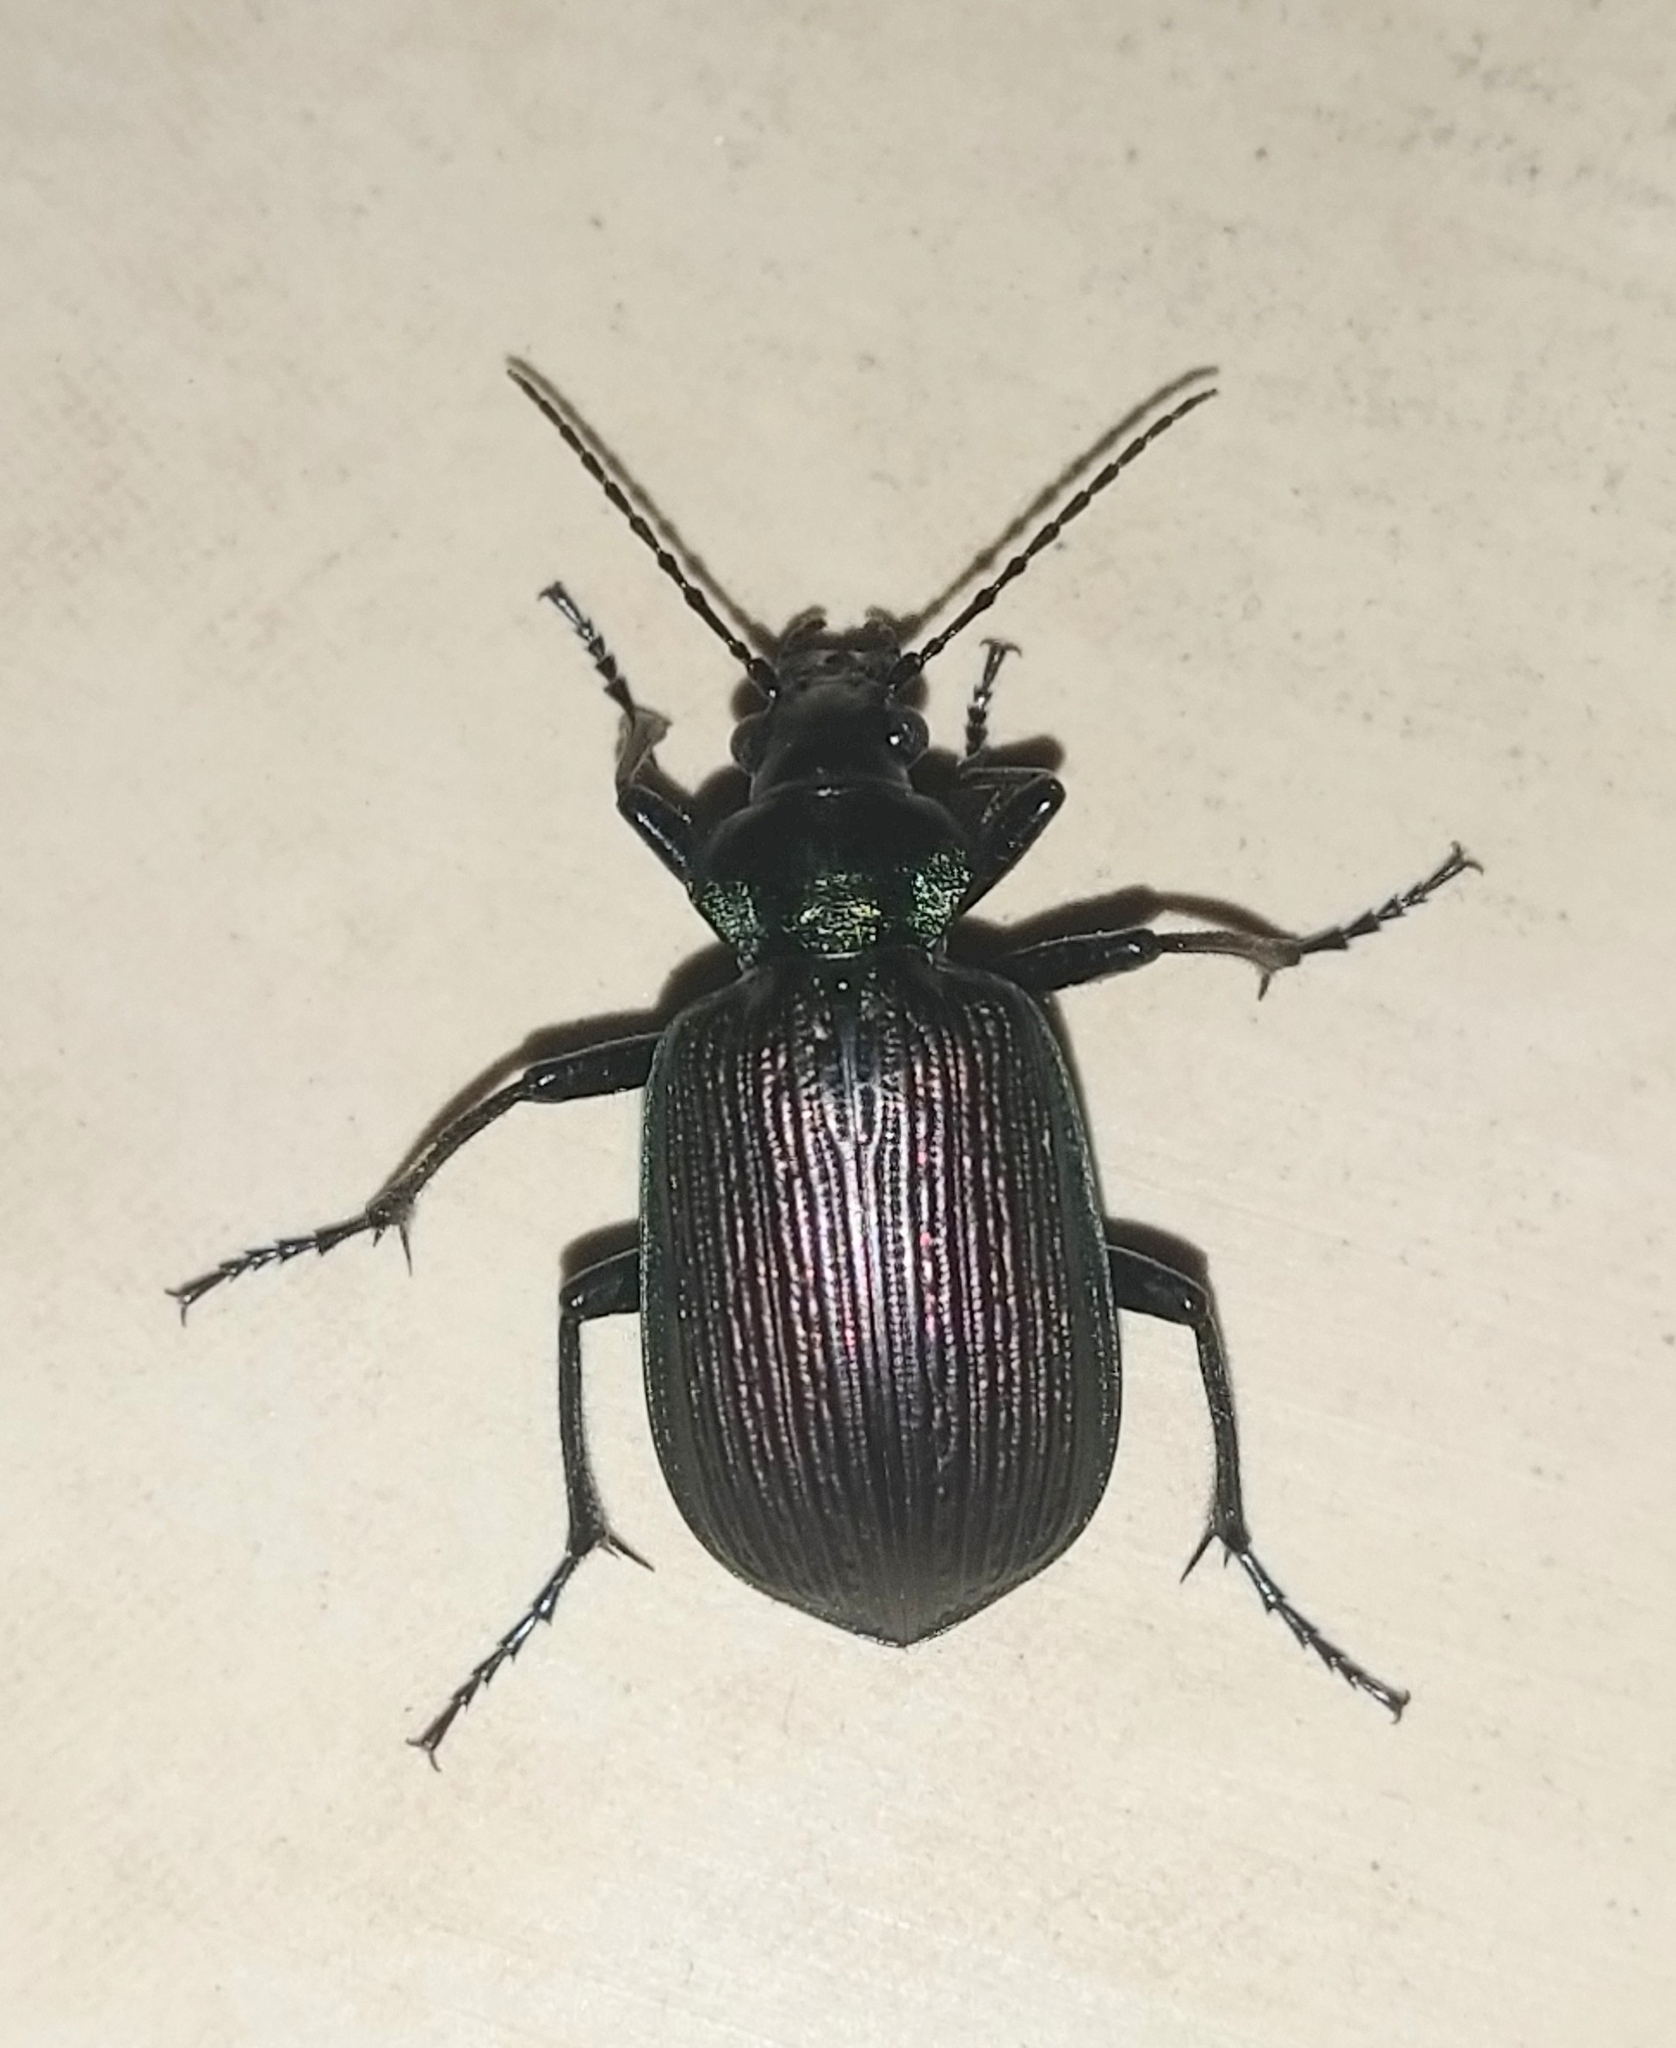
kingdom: Animalia
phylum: Arthropoda
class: Insecta
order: Coleoptera
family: Carabidae
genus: Calosoma
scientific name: Calosoma alternans
